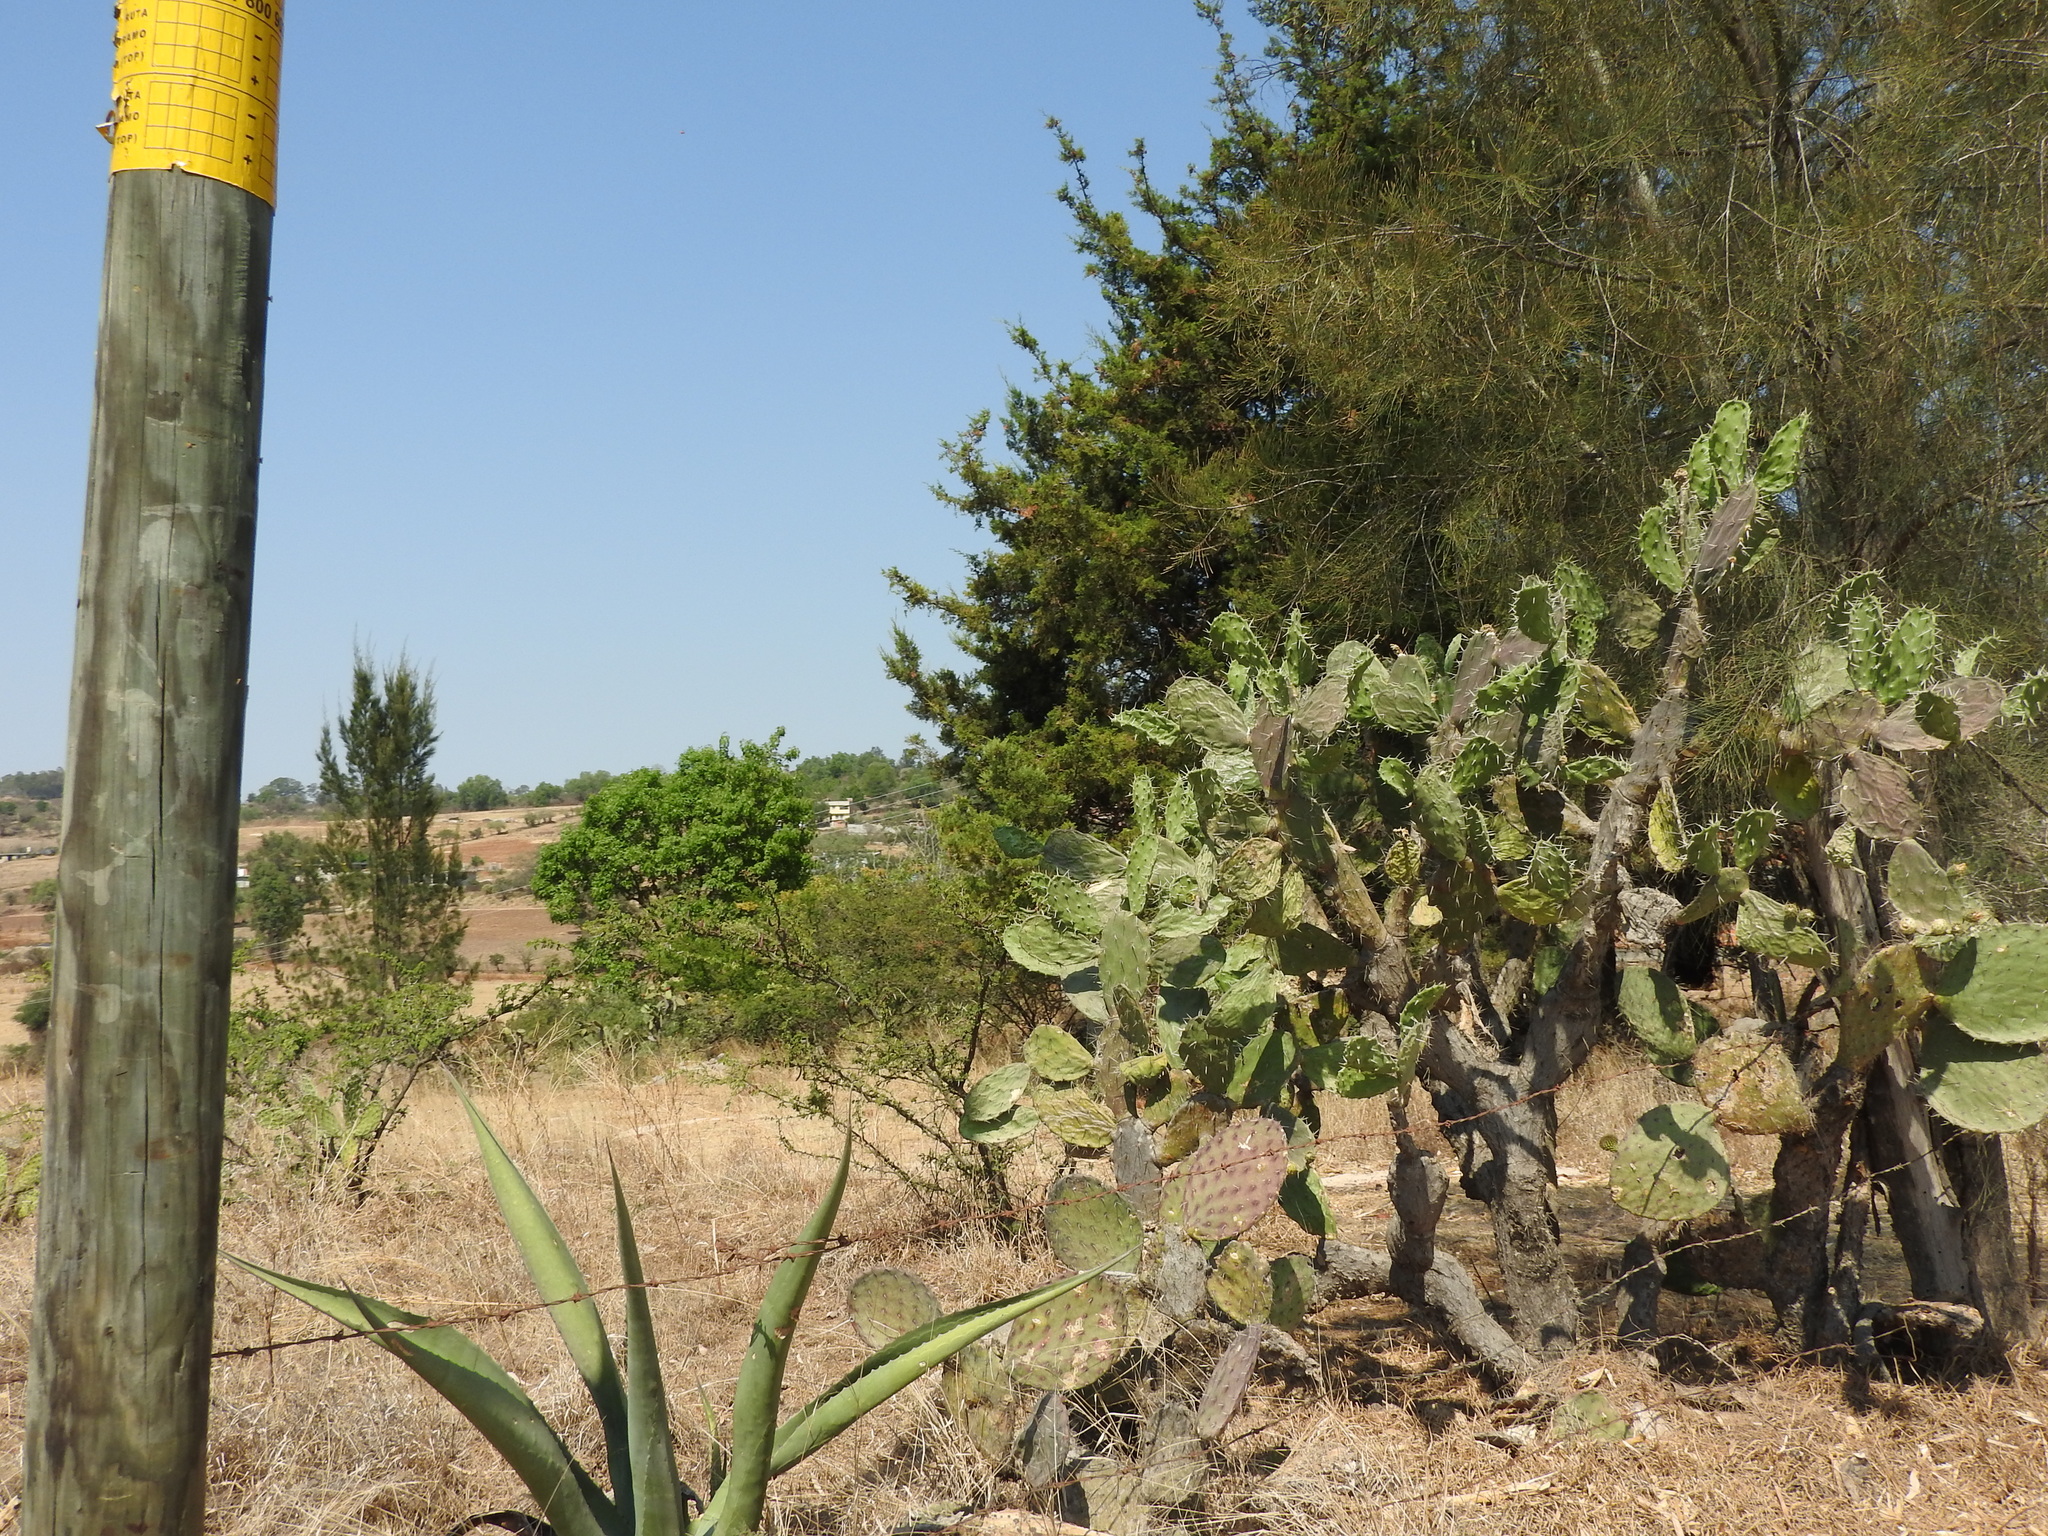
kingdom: Plantae
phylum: Tracheophyta
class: Magnoliopsida
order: Caryophyllales
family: Cactaceae
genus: Opuntia
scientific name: Opuntia lasiacantha
